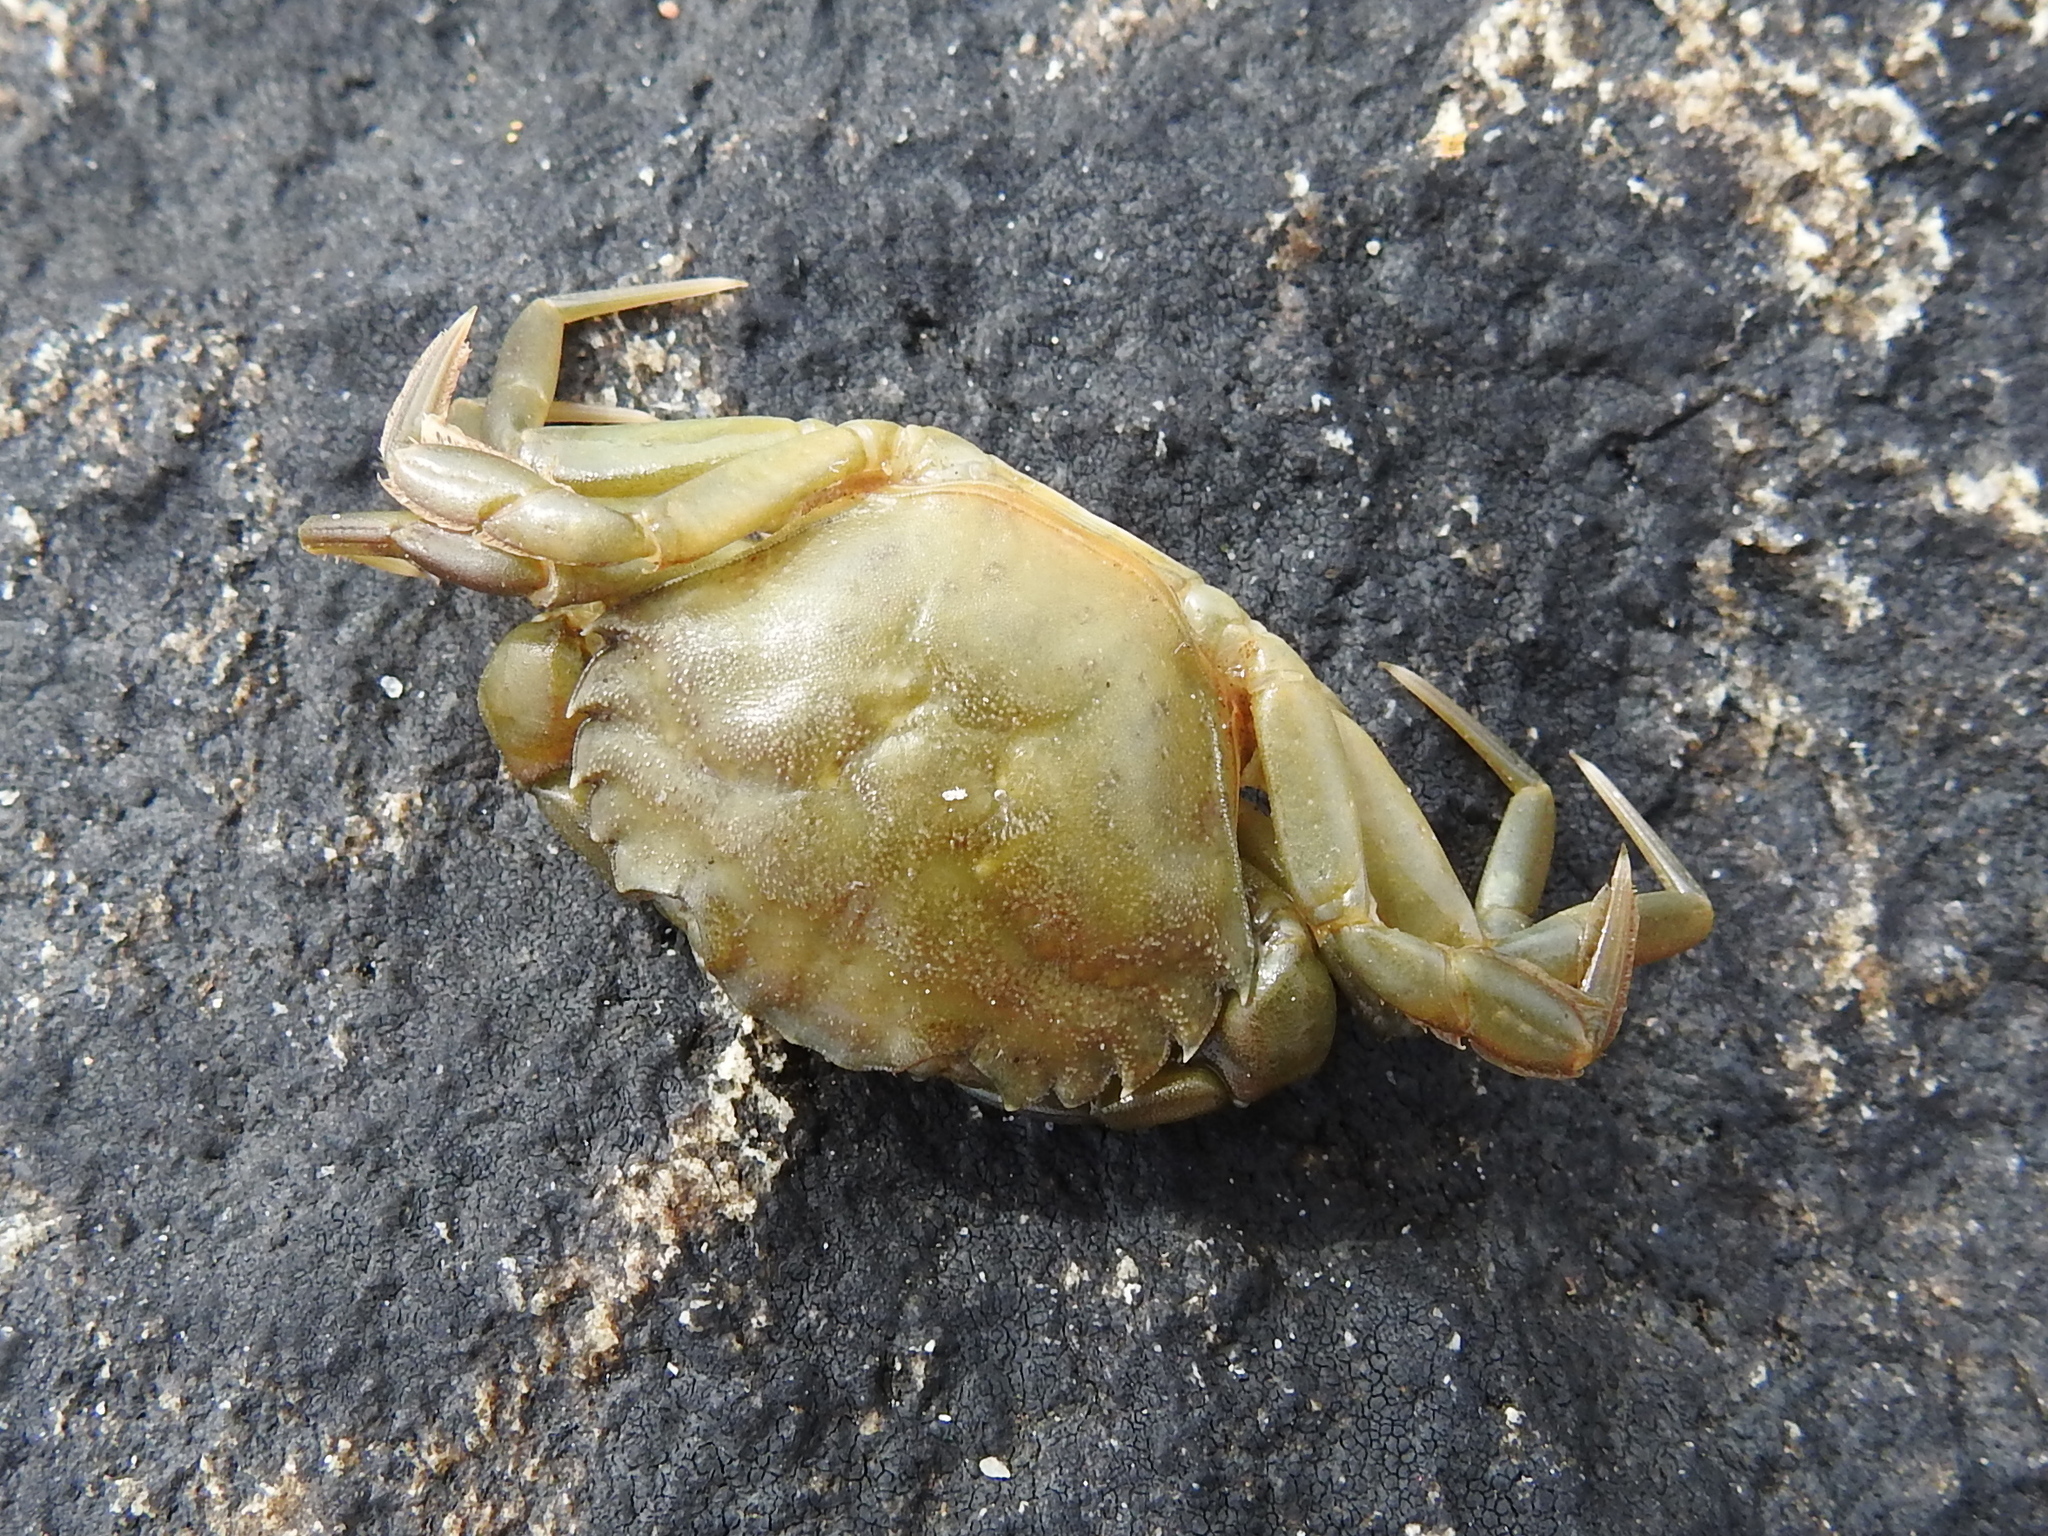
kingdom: Animalia
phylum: Arthropoda
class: Malacostraca
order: Decapoda
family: Carcinidae
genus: Carcinus
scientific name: Carcinus maenas
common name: European green crab
